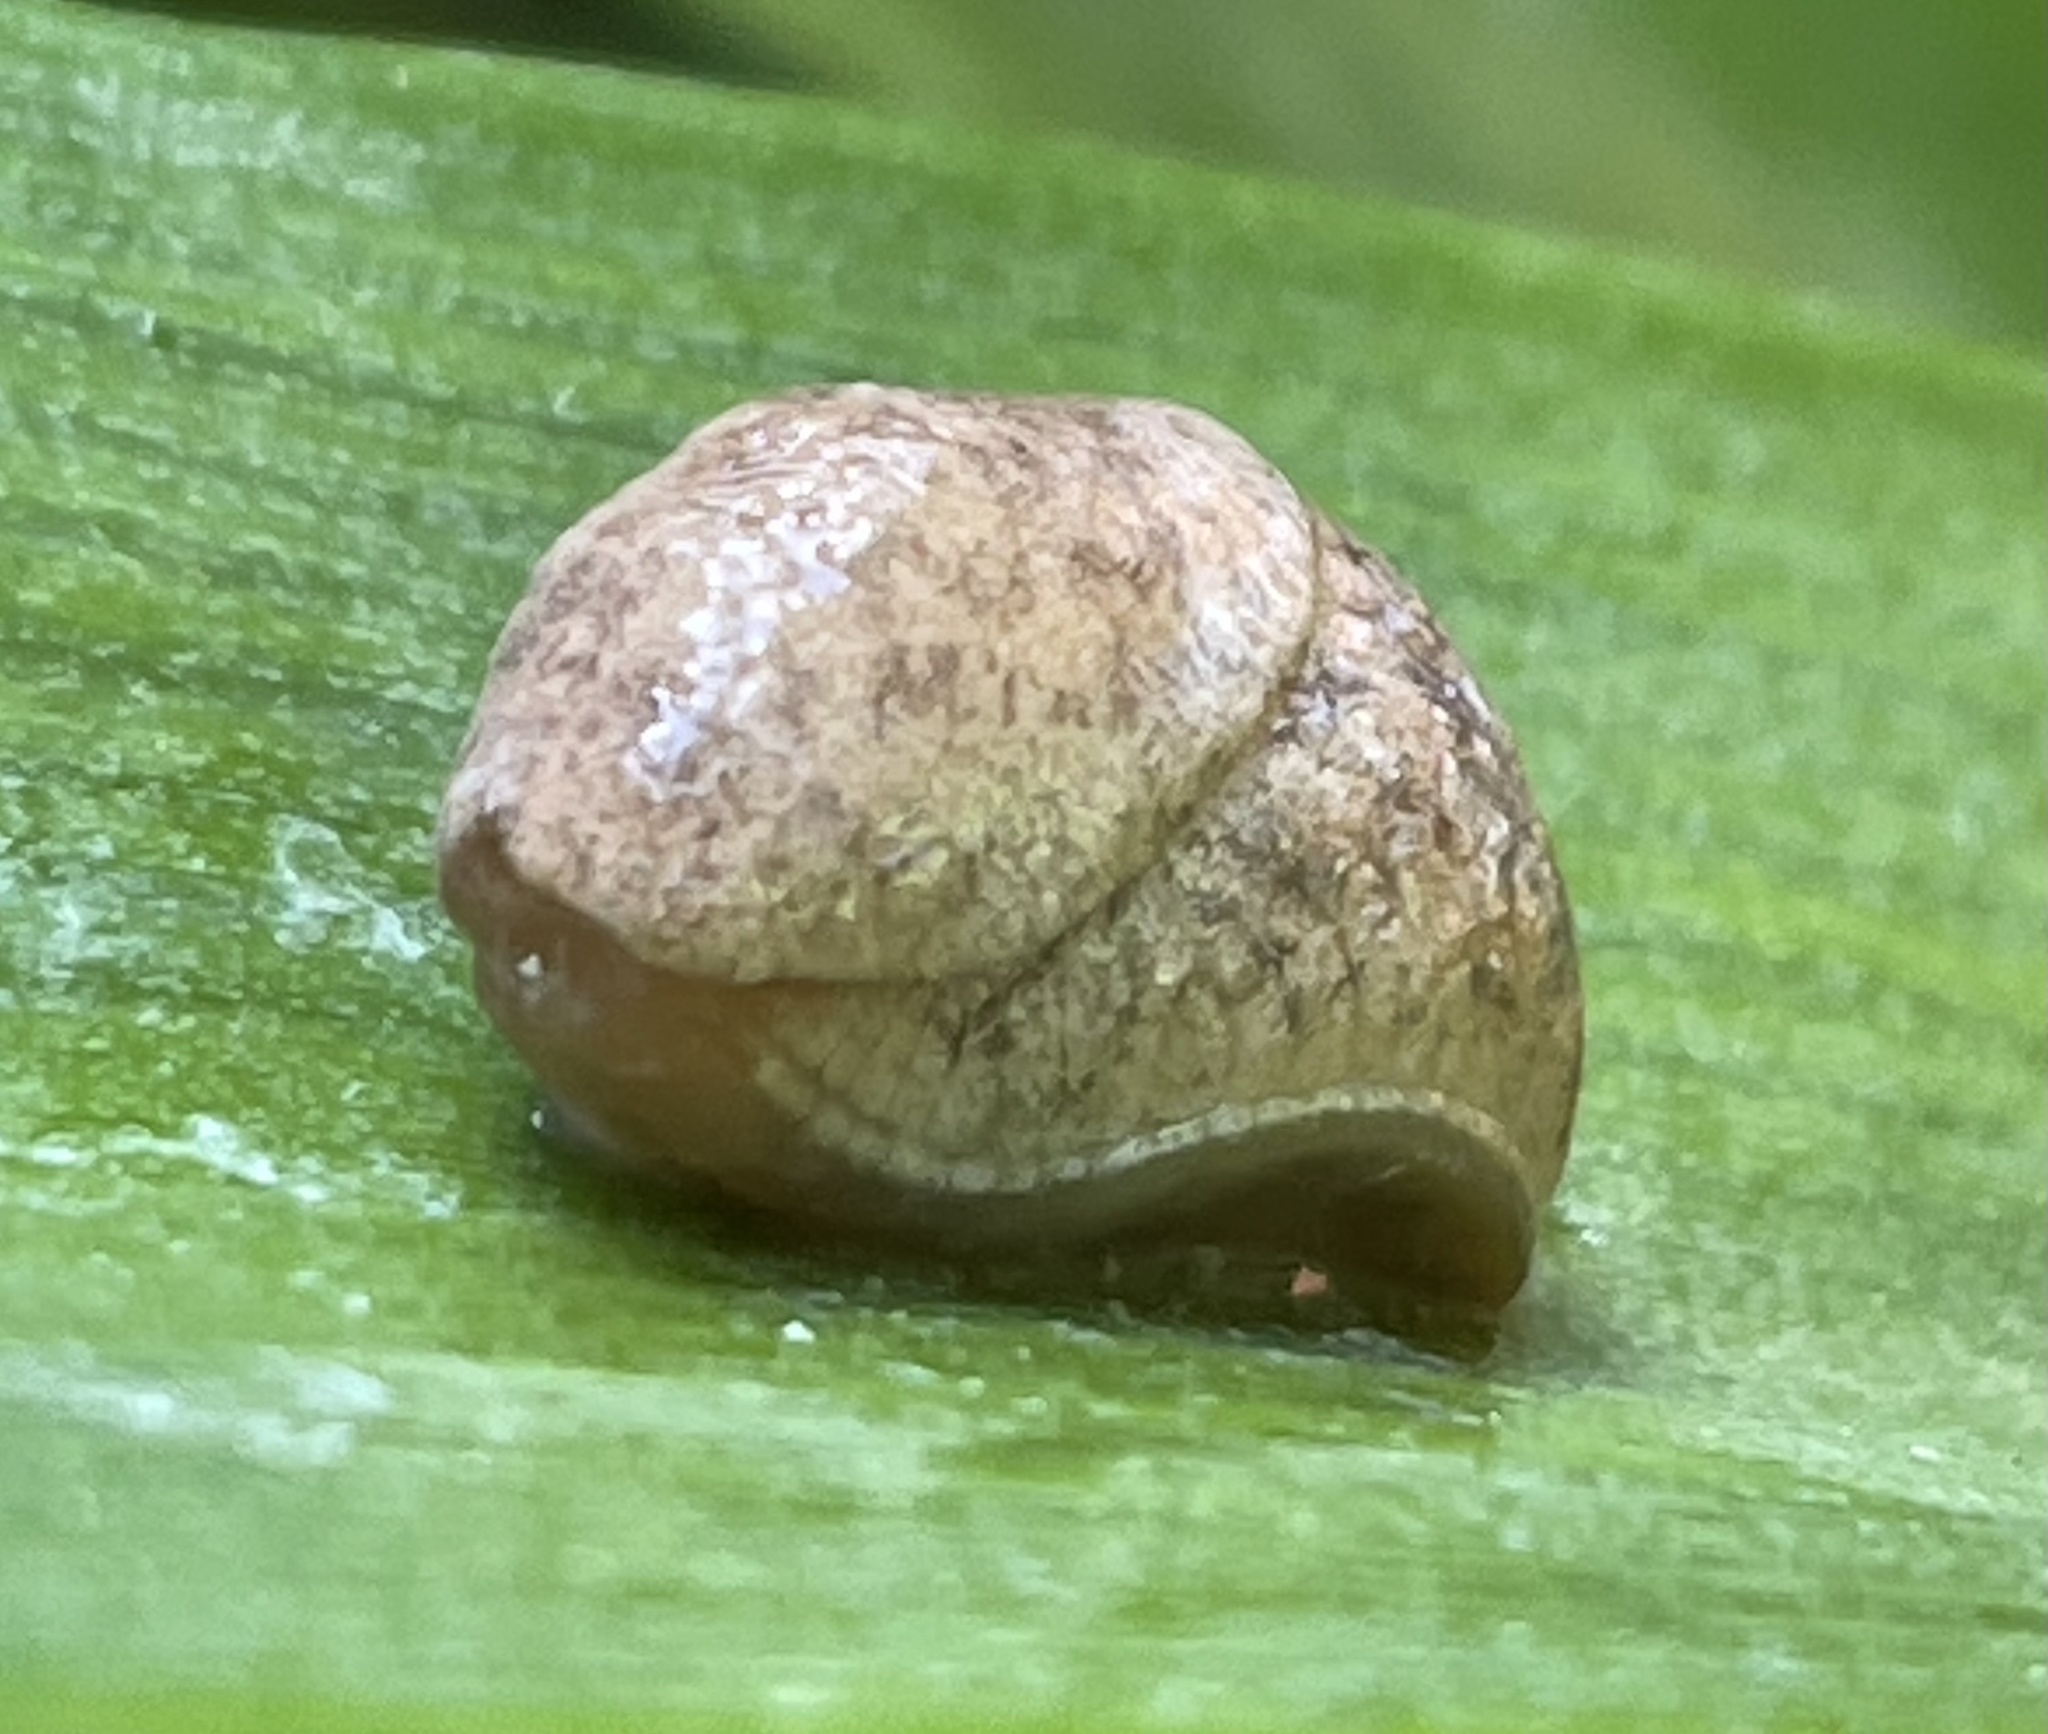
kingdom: Animalia
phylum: Mollusca
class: Gastropoda
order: Stylommatophora
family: Agriolimacidae
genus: Deroceras
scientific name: Deroceras reticulatum
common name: Gray field slug
